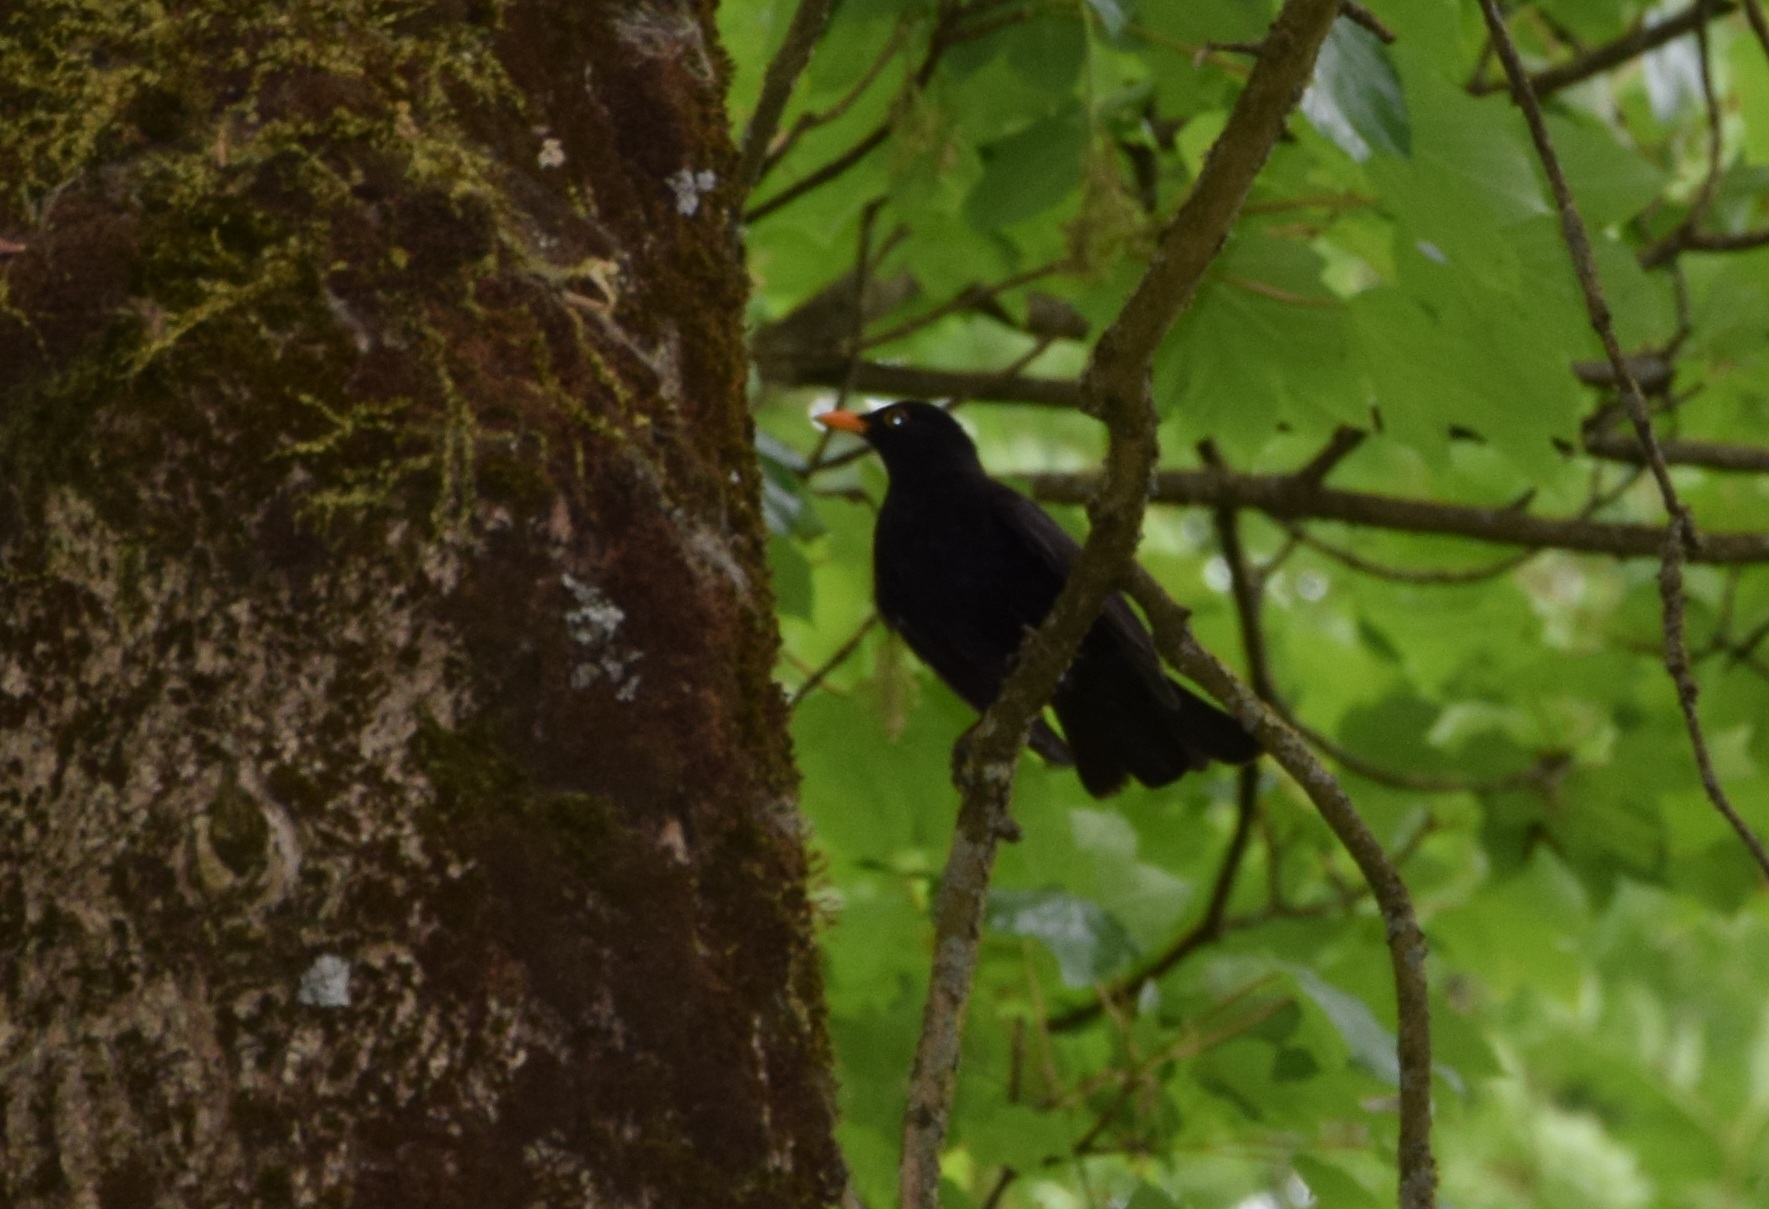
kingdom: Animalia
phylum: Chordata
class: Aves
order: Passeriformes
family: Turdidae
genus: Turdus
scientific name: Turdus merula
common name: Common blackbird
